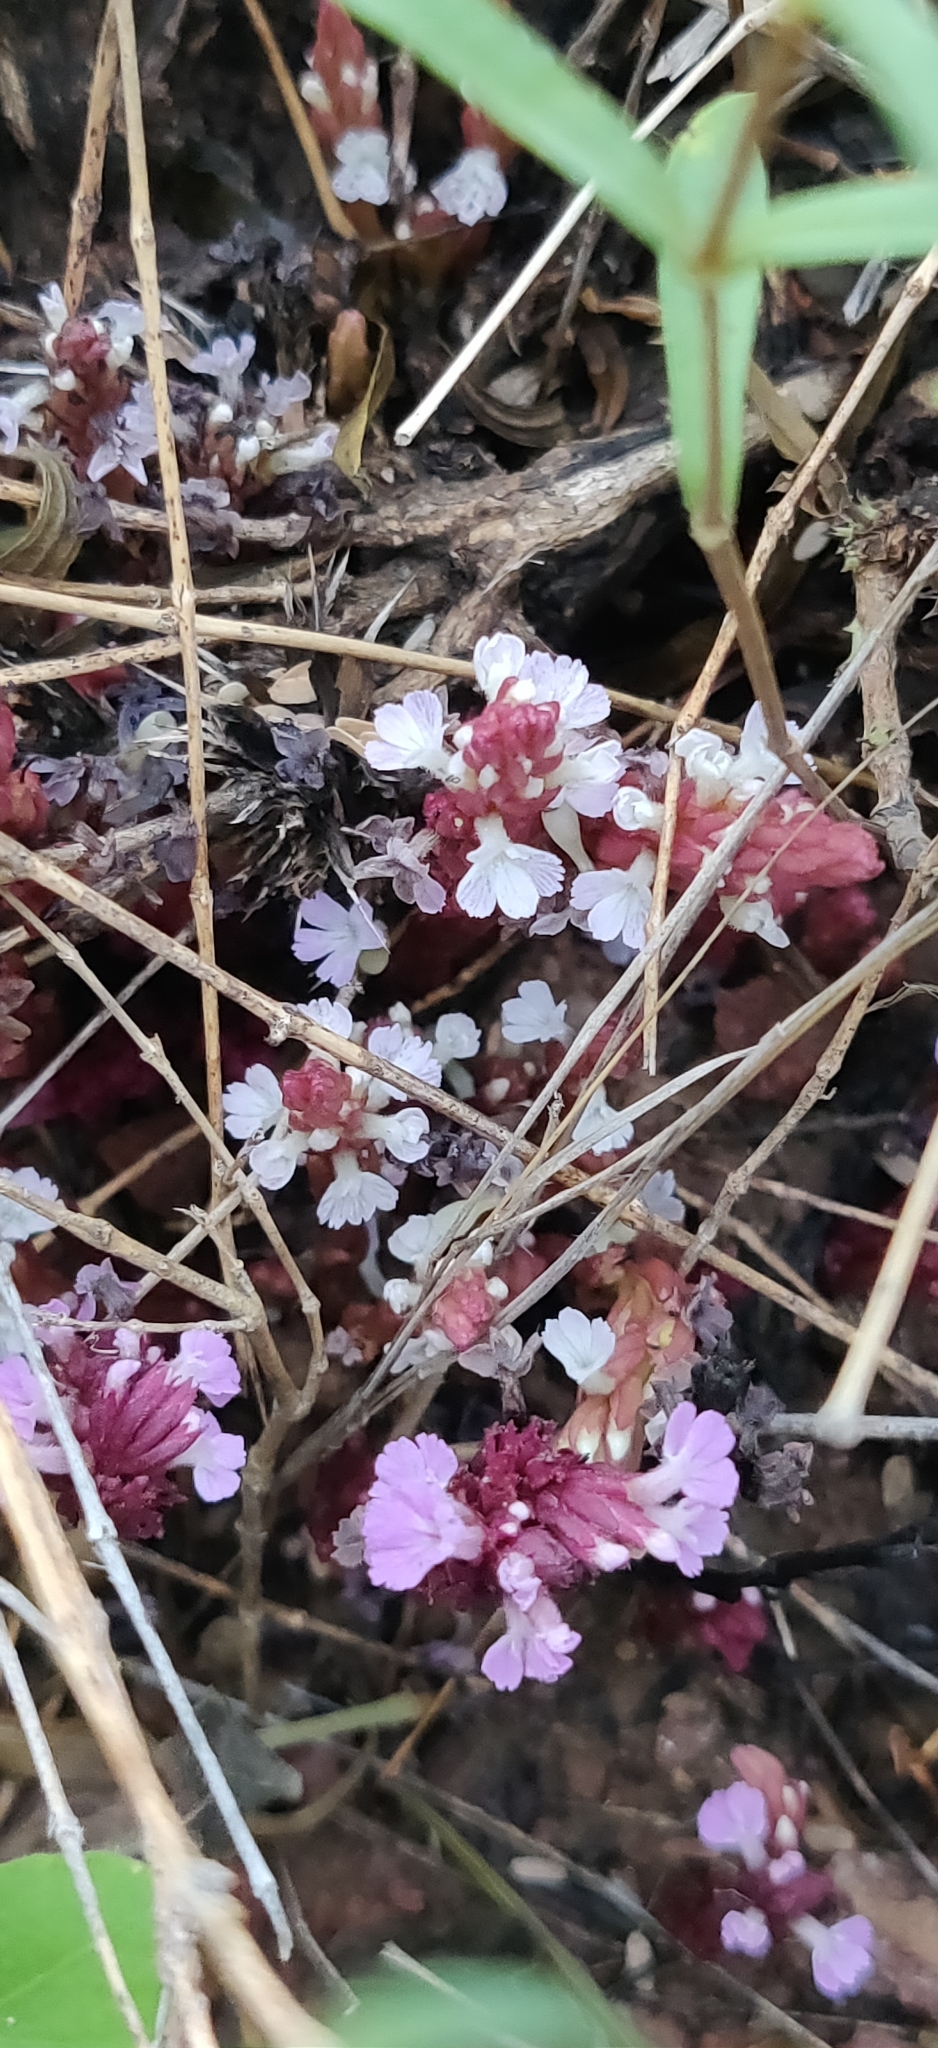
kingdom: Plantae
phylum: Tracheophyta
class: Magnoliopsida
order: Lamiales
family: Orobanchaceae
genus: Striga
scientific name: Striga gesnerioides
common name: Cowpea witchweed
